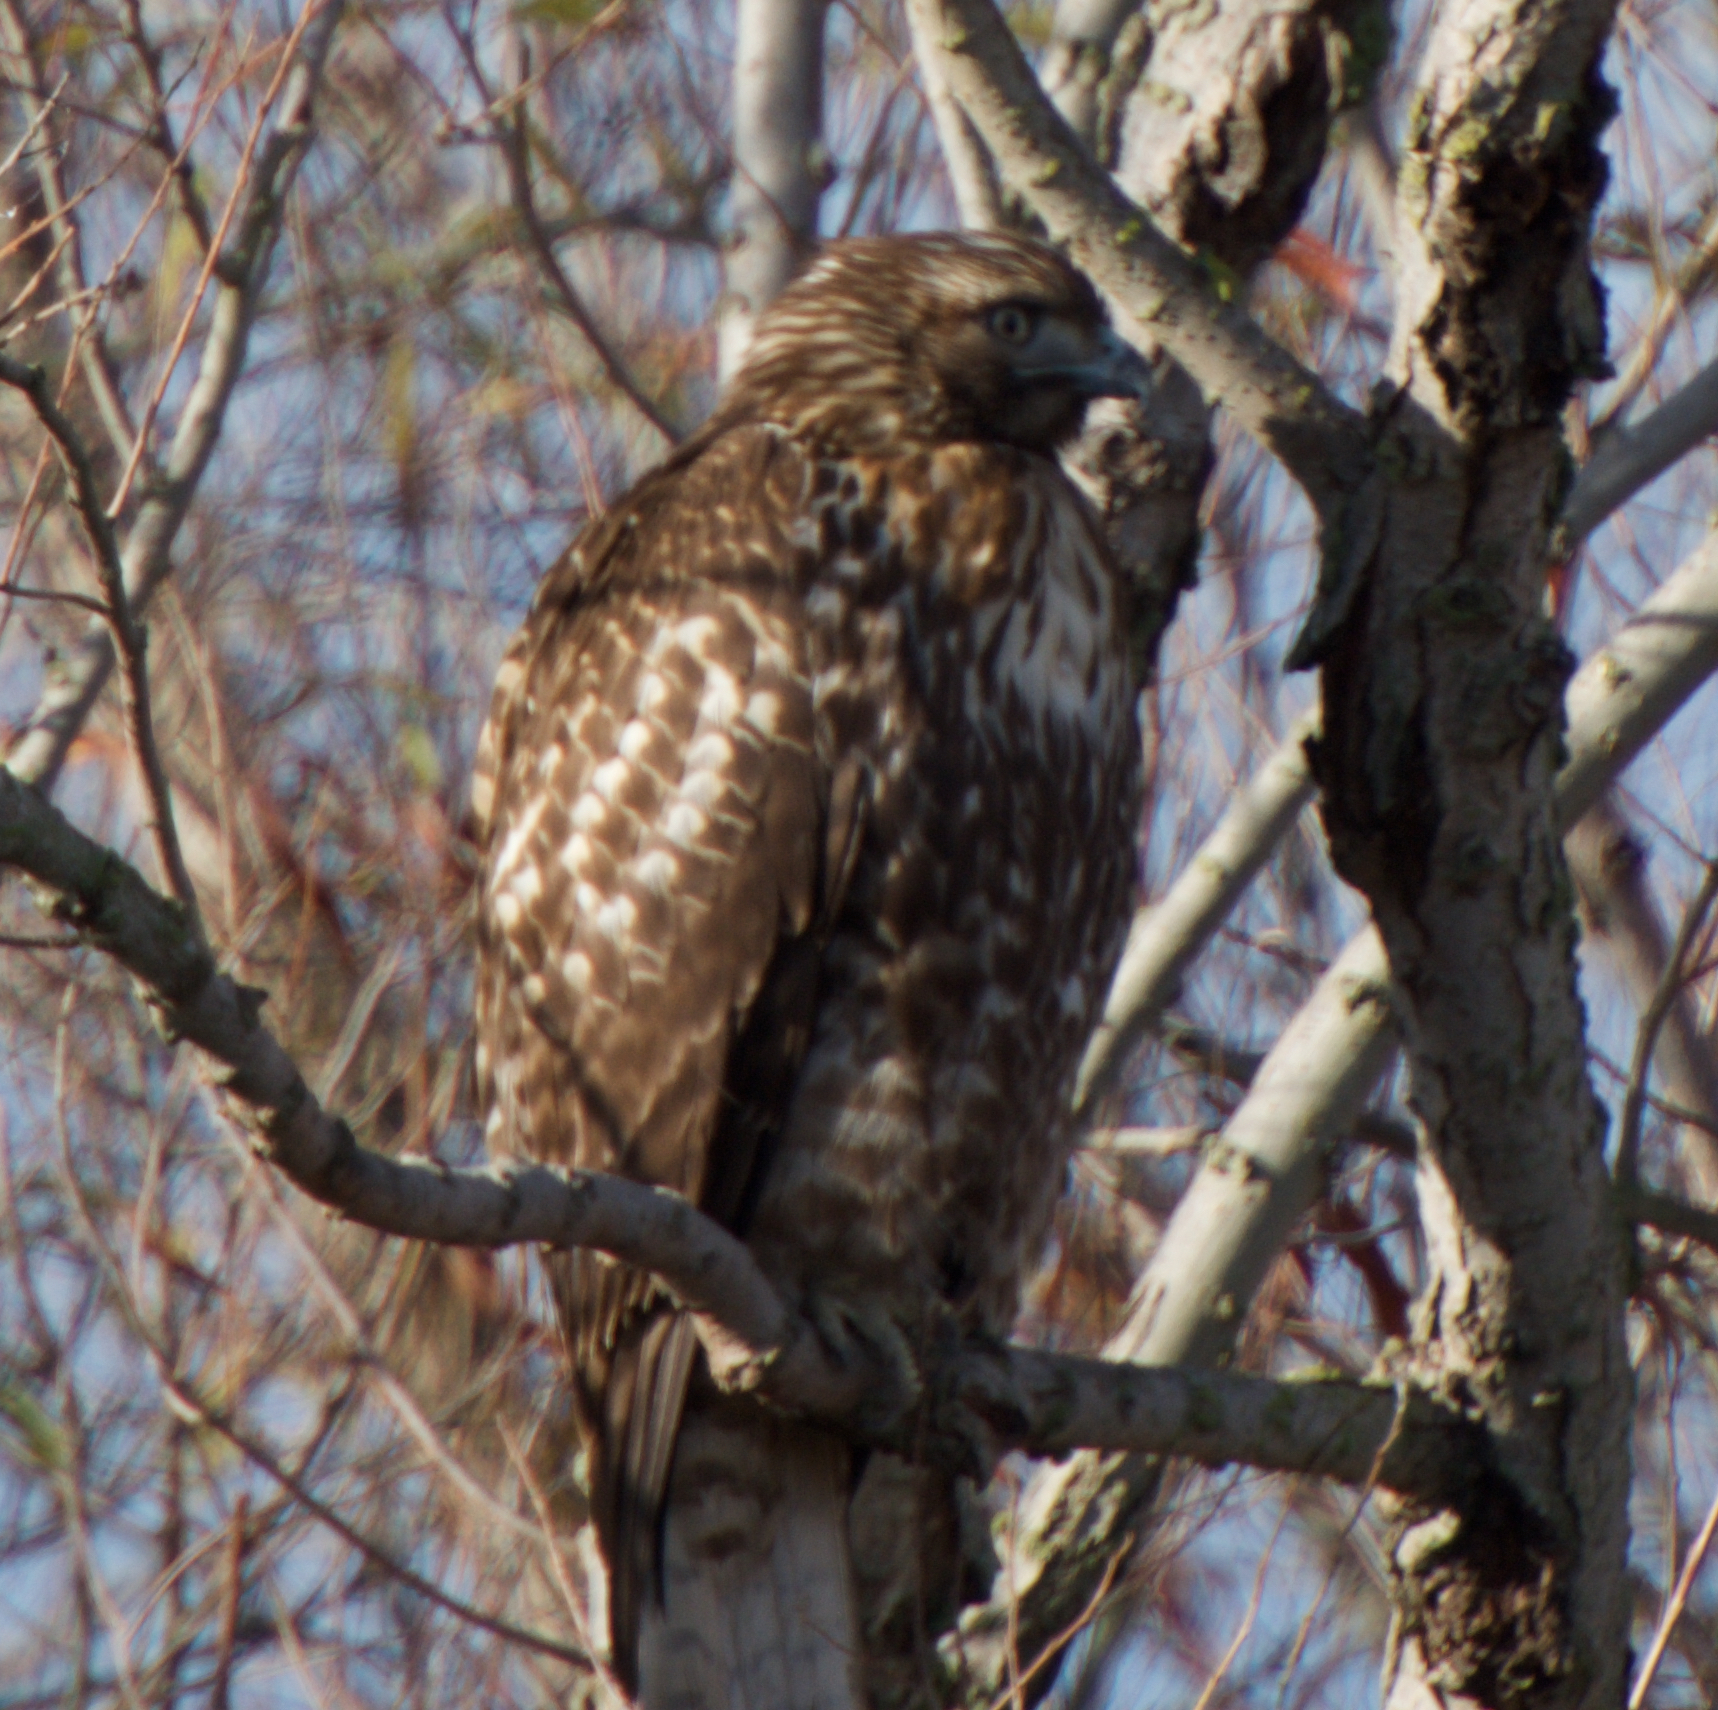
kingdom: Animalia
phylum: Chordata
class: Aves
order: Accipitriformes
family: Accipitridae
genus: Buteo
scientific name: Buteo jamaicensis
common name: Red-tailed hawk
